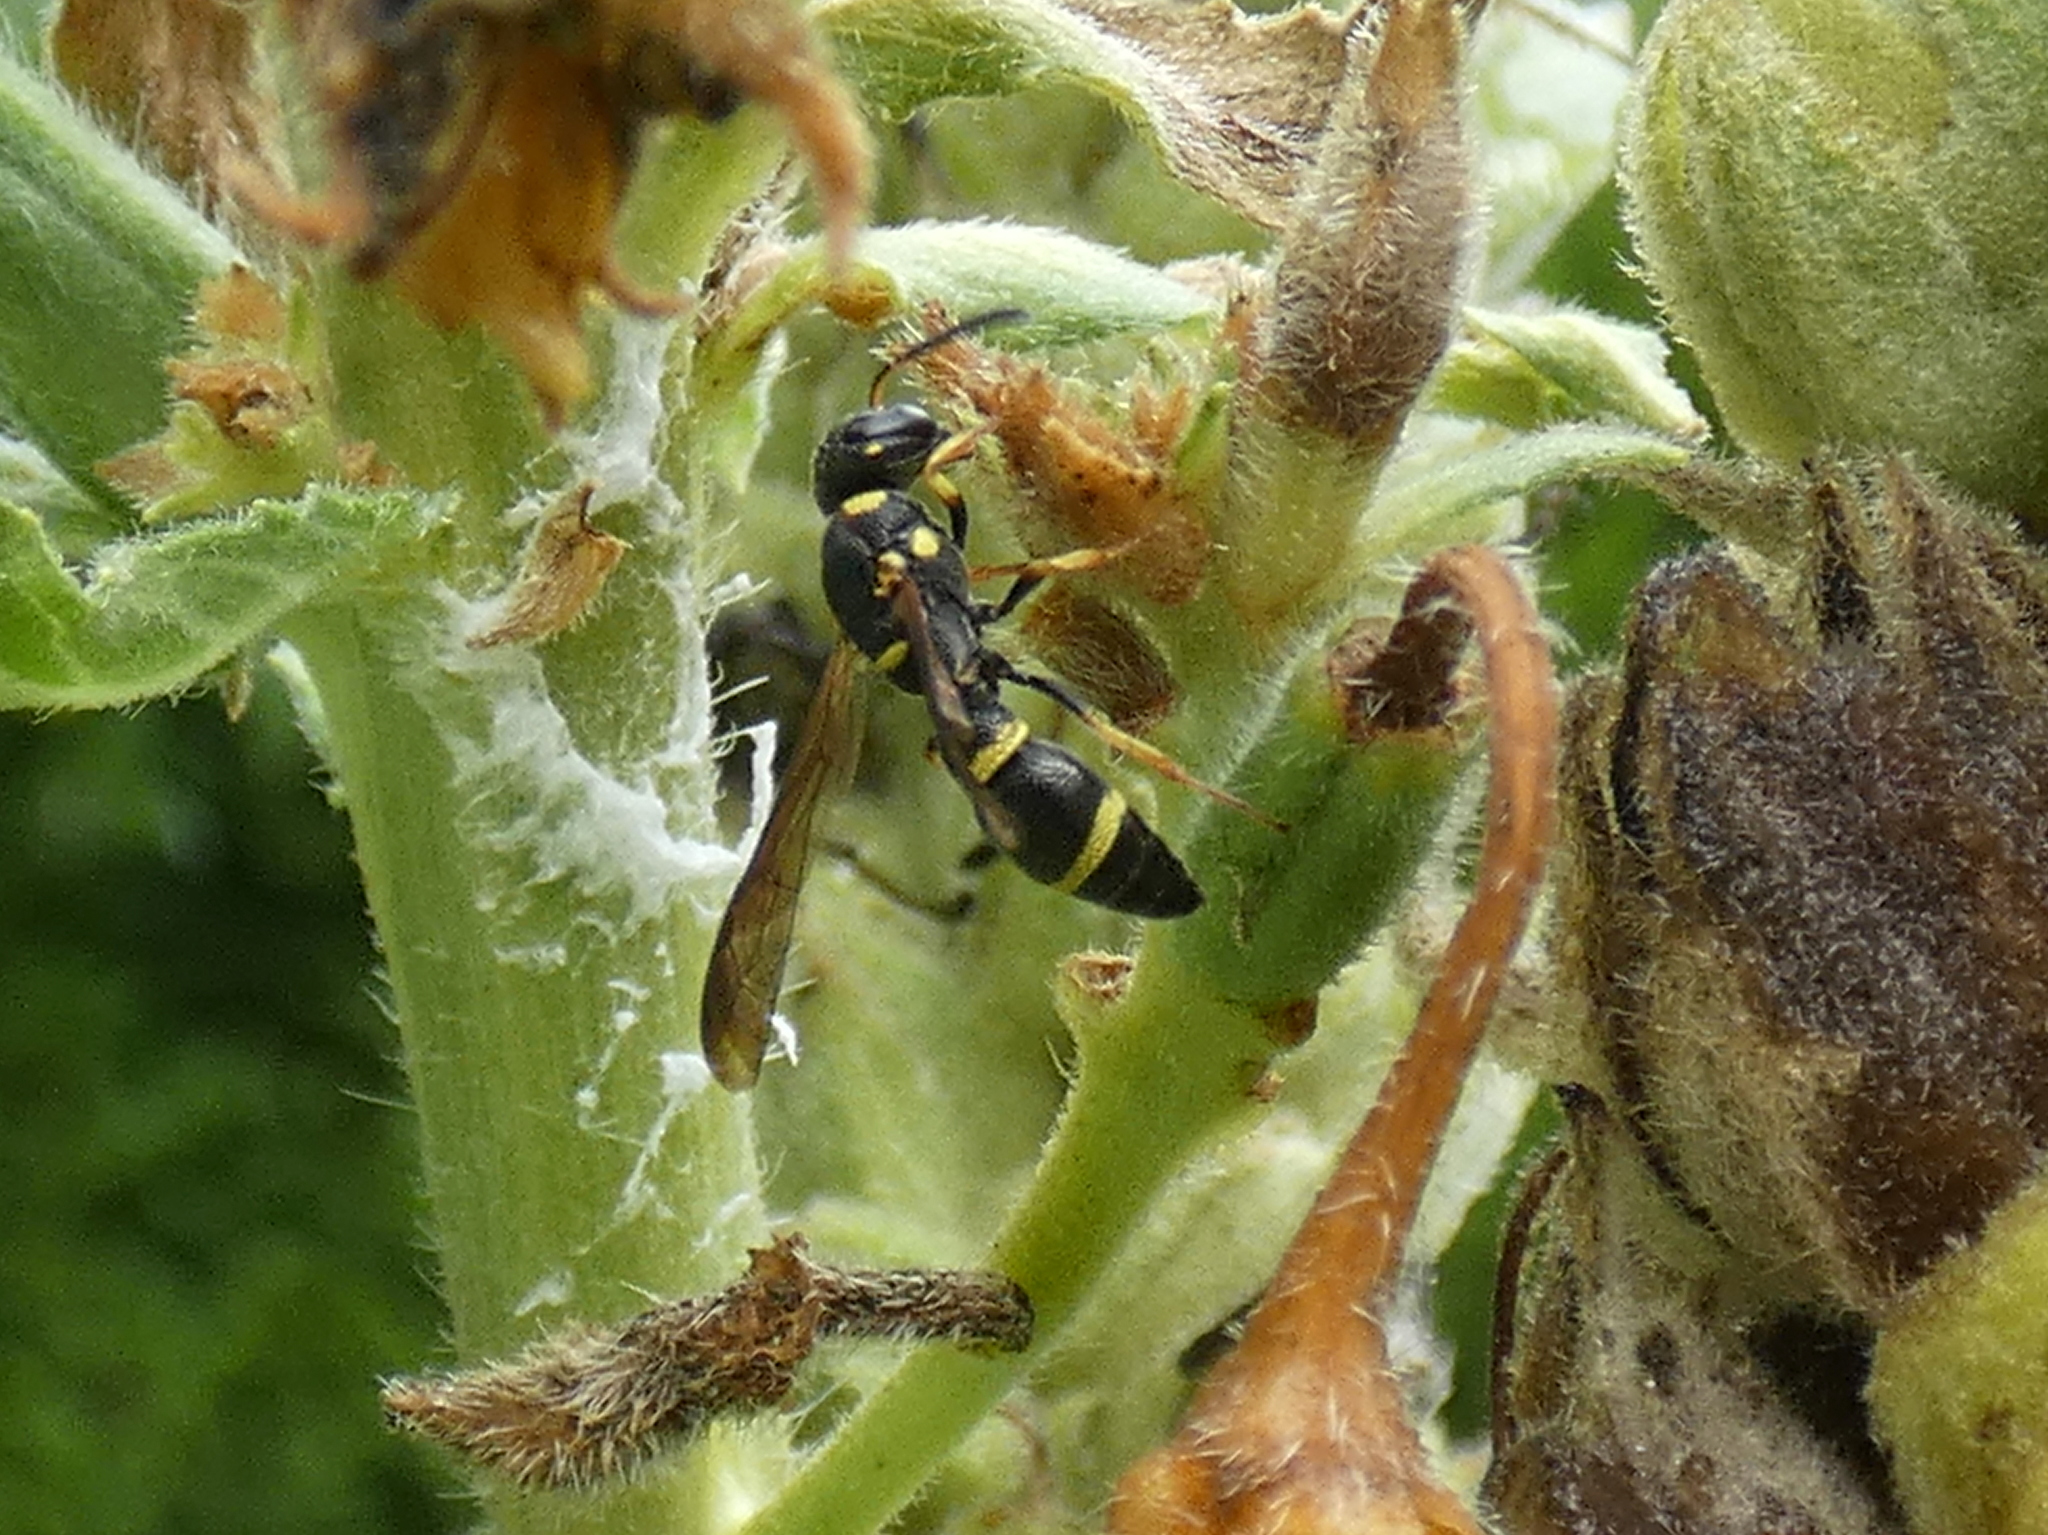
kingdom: Animalia
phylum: Arthropoda
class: Insecta
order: Hymenoptera
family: Eumenidae
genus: Parancistrocerus
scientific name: Parancistrocerus perennis
